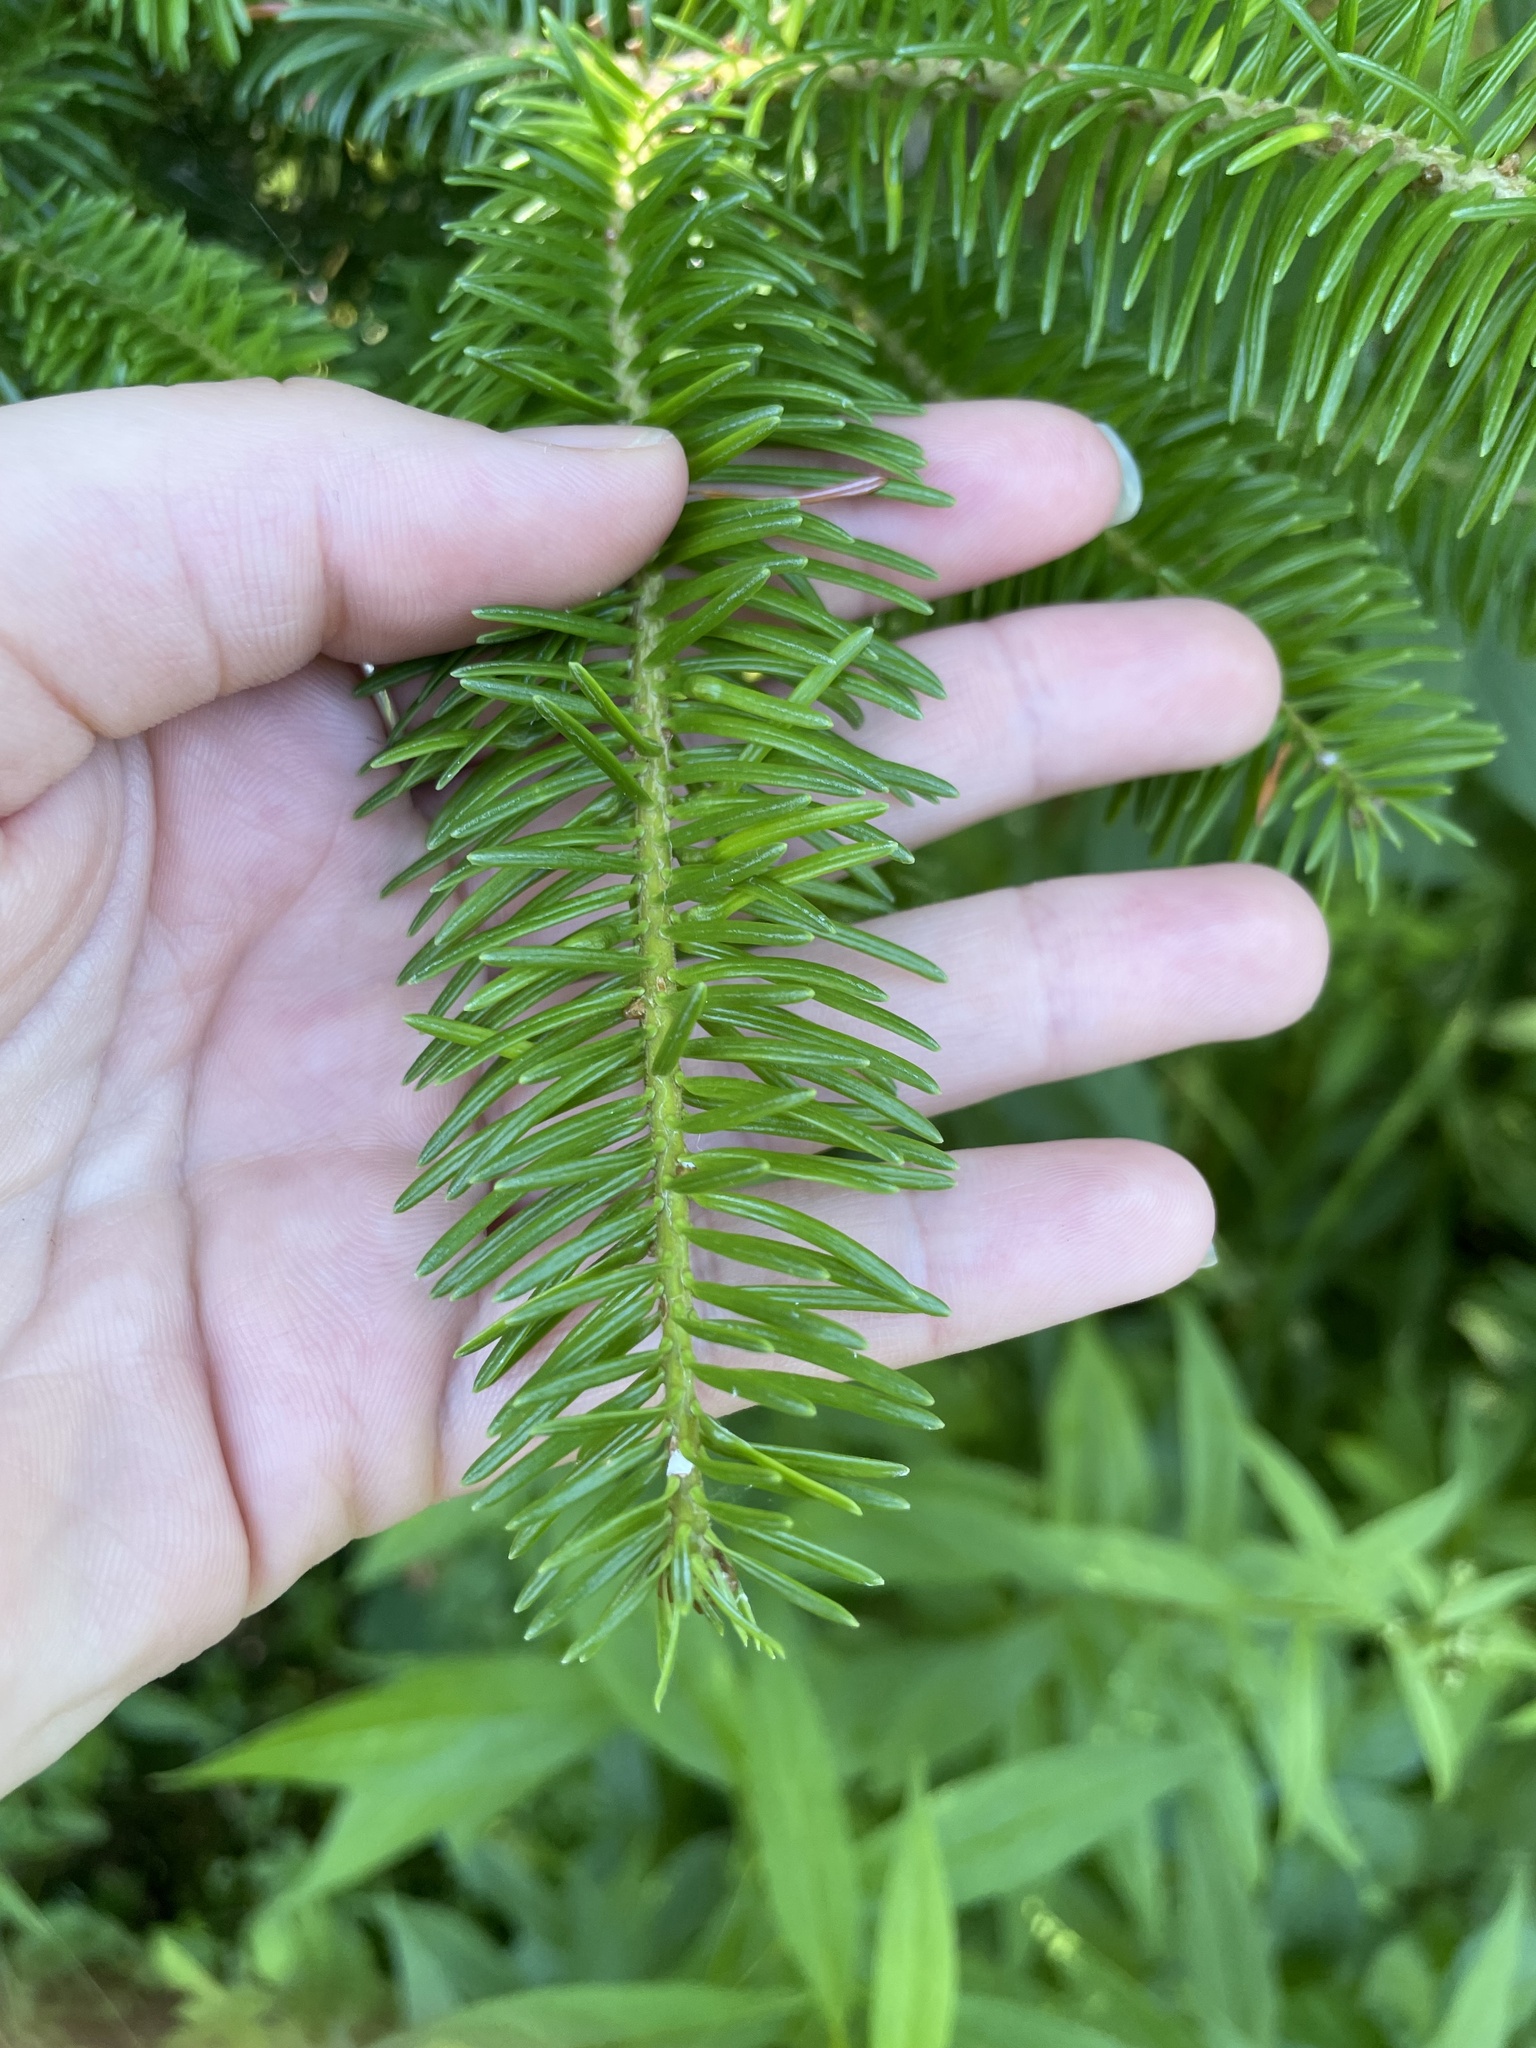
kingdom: Plantae
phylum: Tracheophyta
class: Pinopsida
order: Pinales
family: Pinaceae
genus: Abies
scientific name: Abies balsamea
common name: Balsam fir
